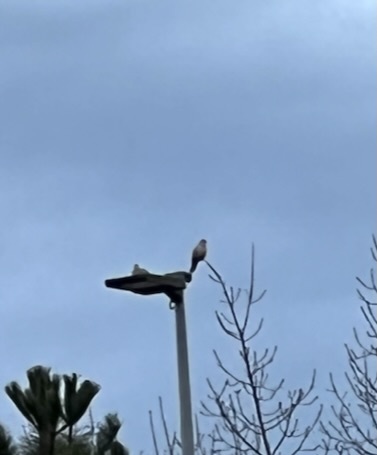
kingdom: Animalia
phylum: Chordata
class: Aves
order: Columbiformes
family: Columbidae
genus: Streptopelia
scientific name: Streptopelia decaocto
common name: Eurasian collared dove
